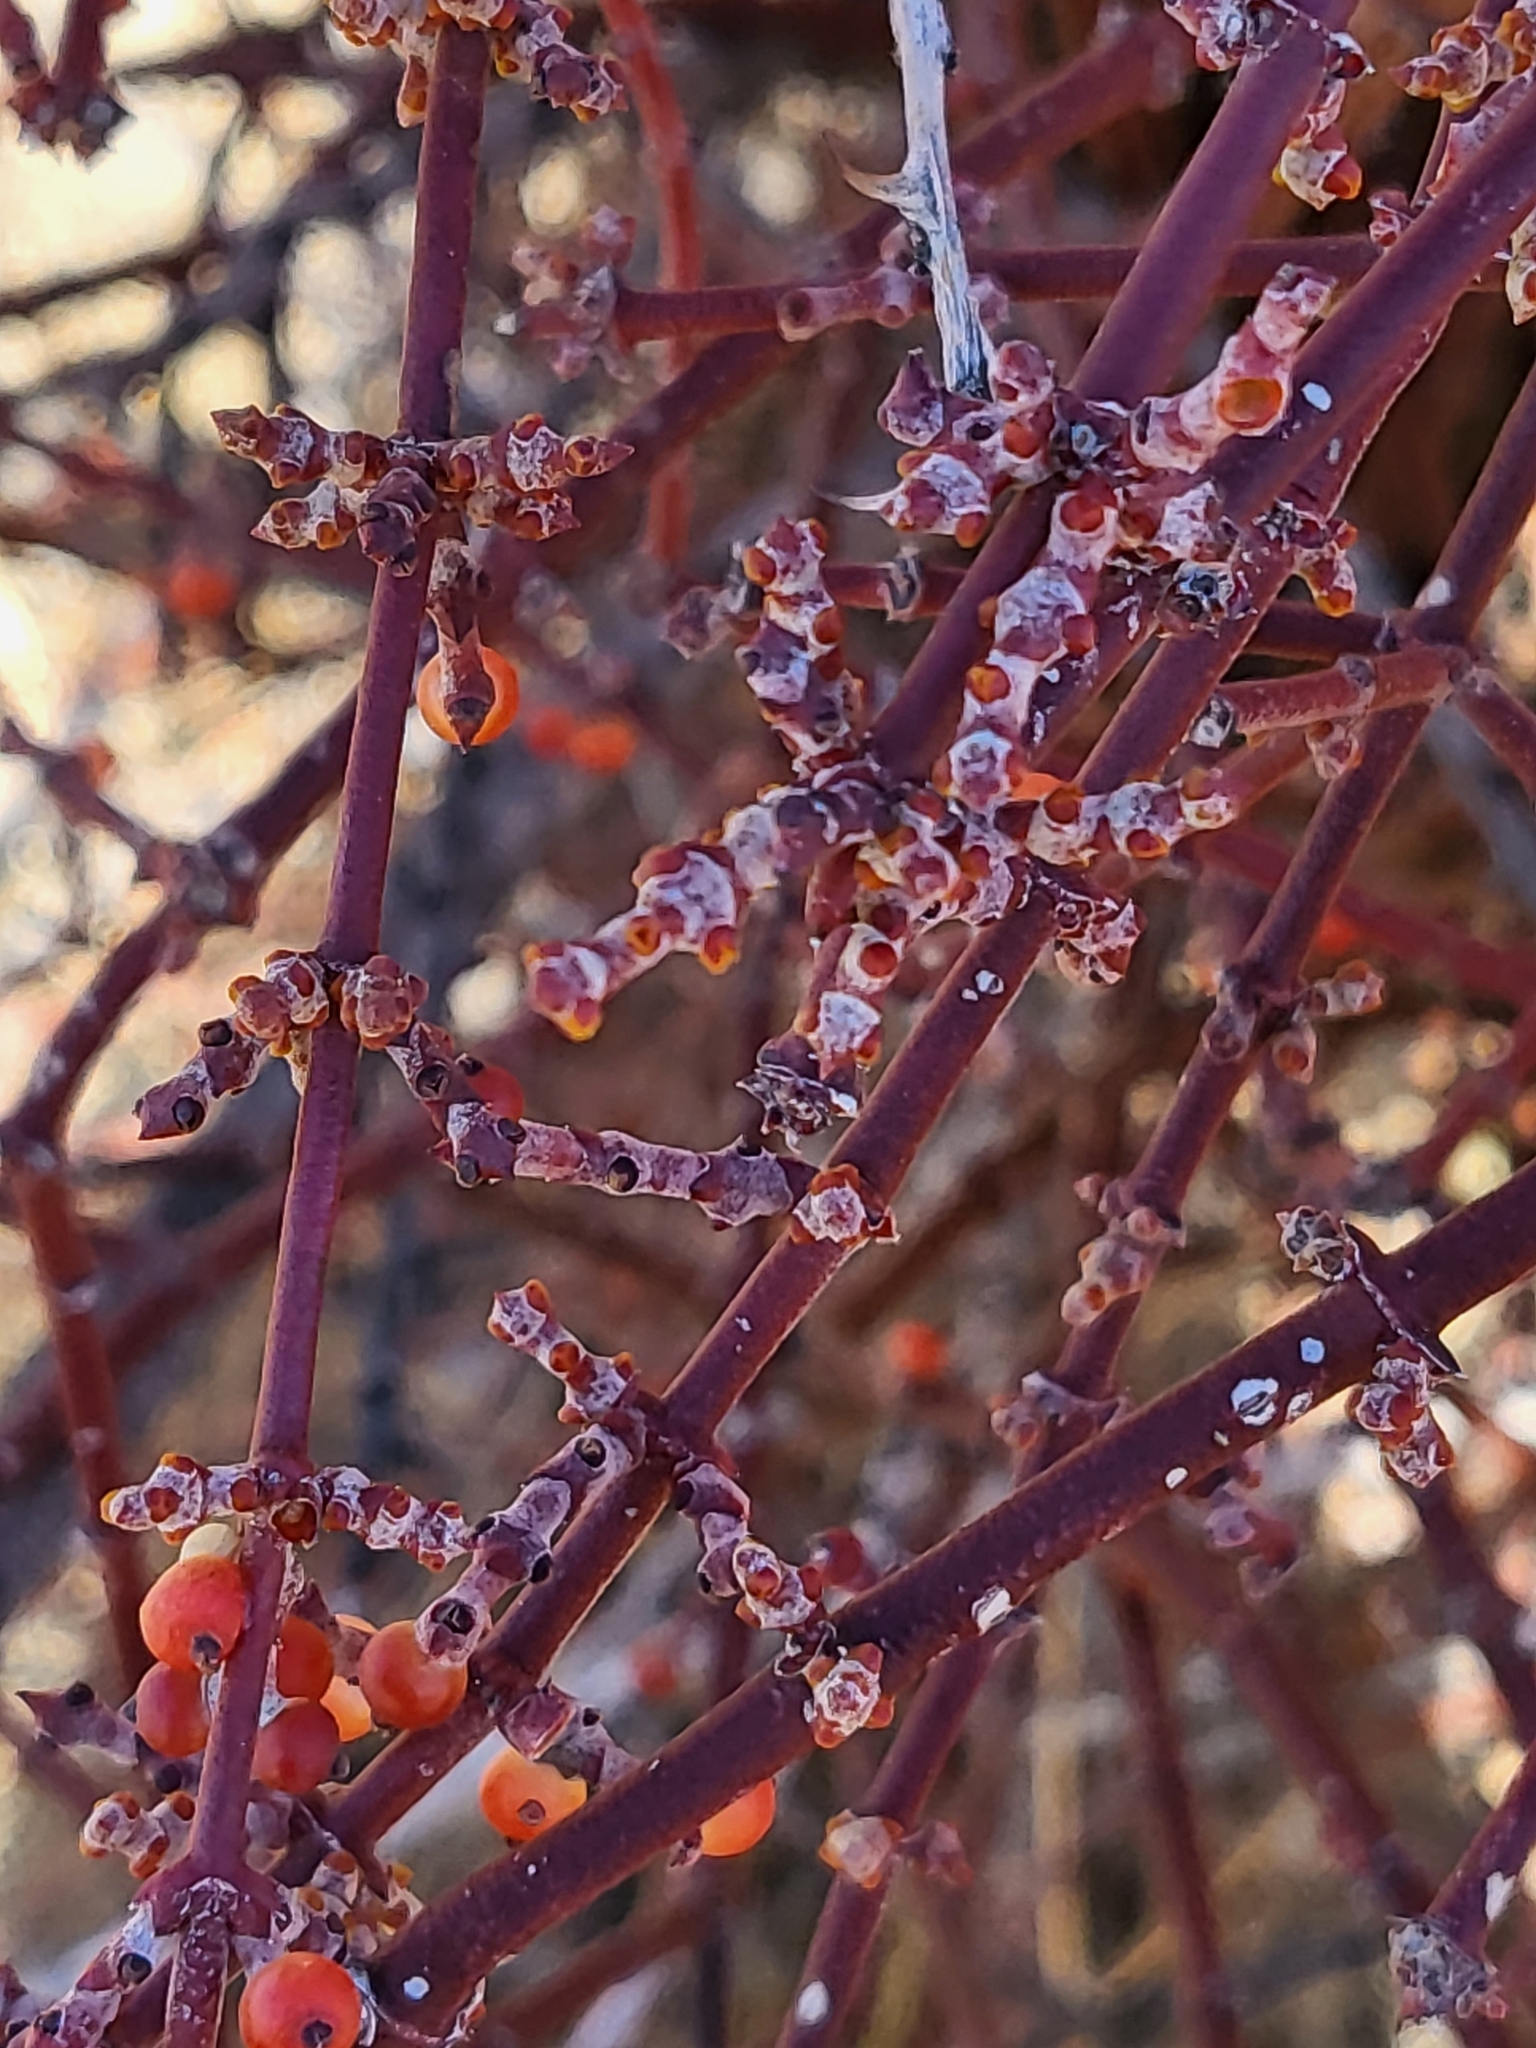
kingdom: Plantae
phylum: Tracheophyta
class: Magnoliopsida
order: Santalales
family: Viscaceae
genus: Phoradendron
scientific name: Phoradendron californicum
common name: Acacia mistletoe
